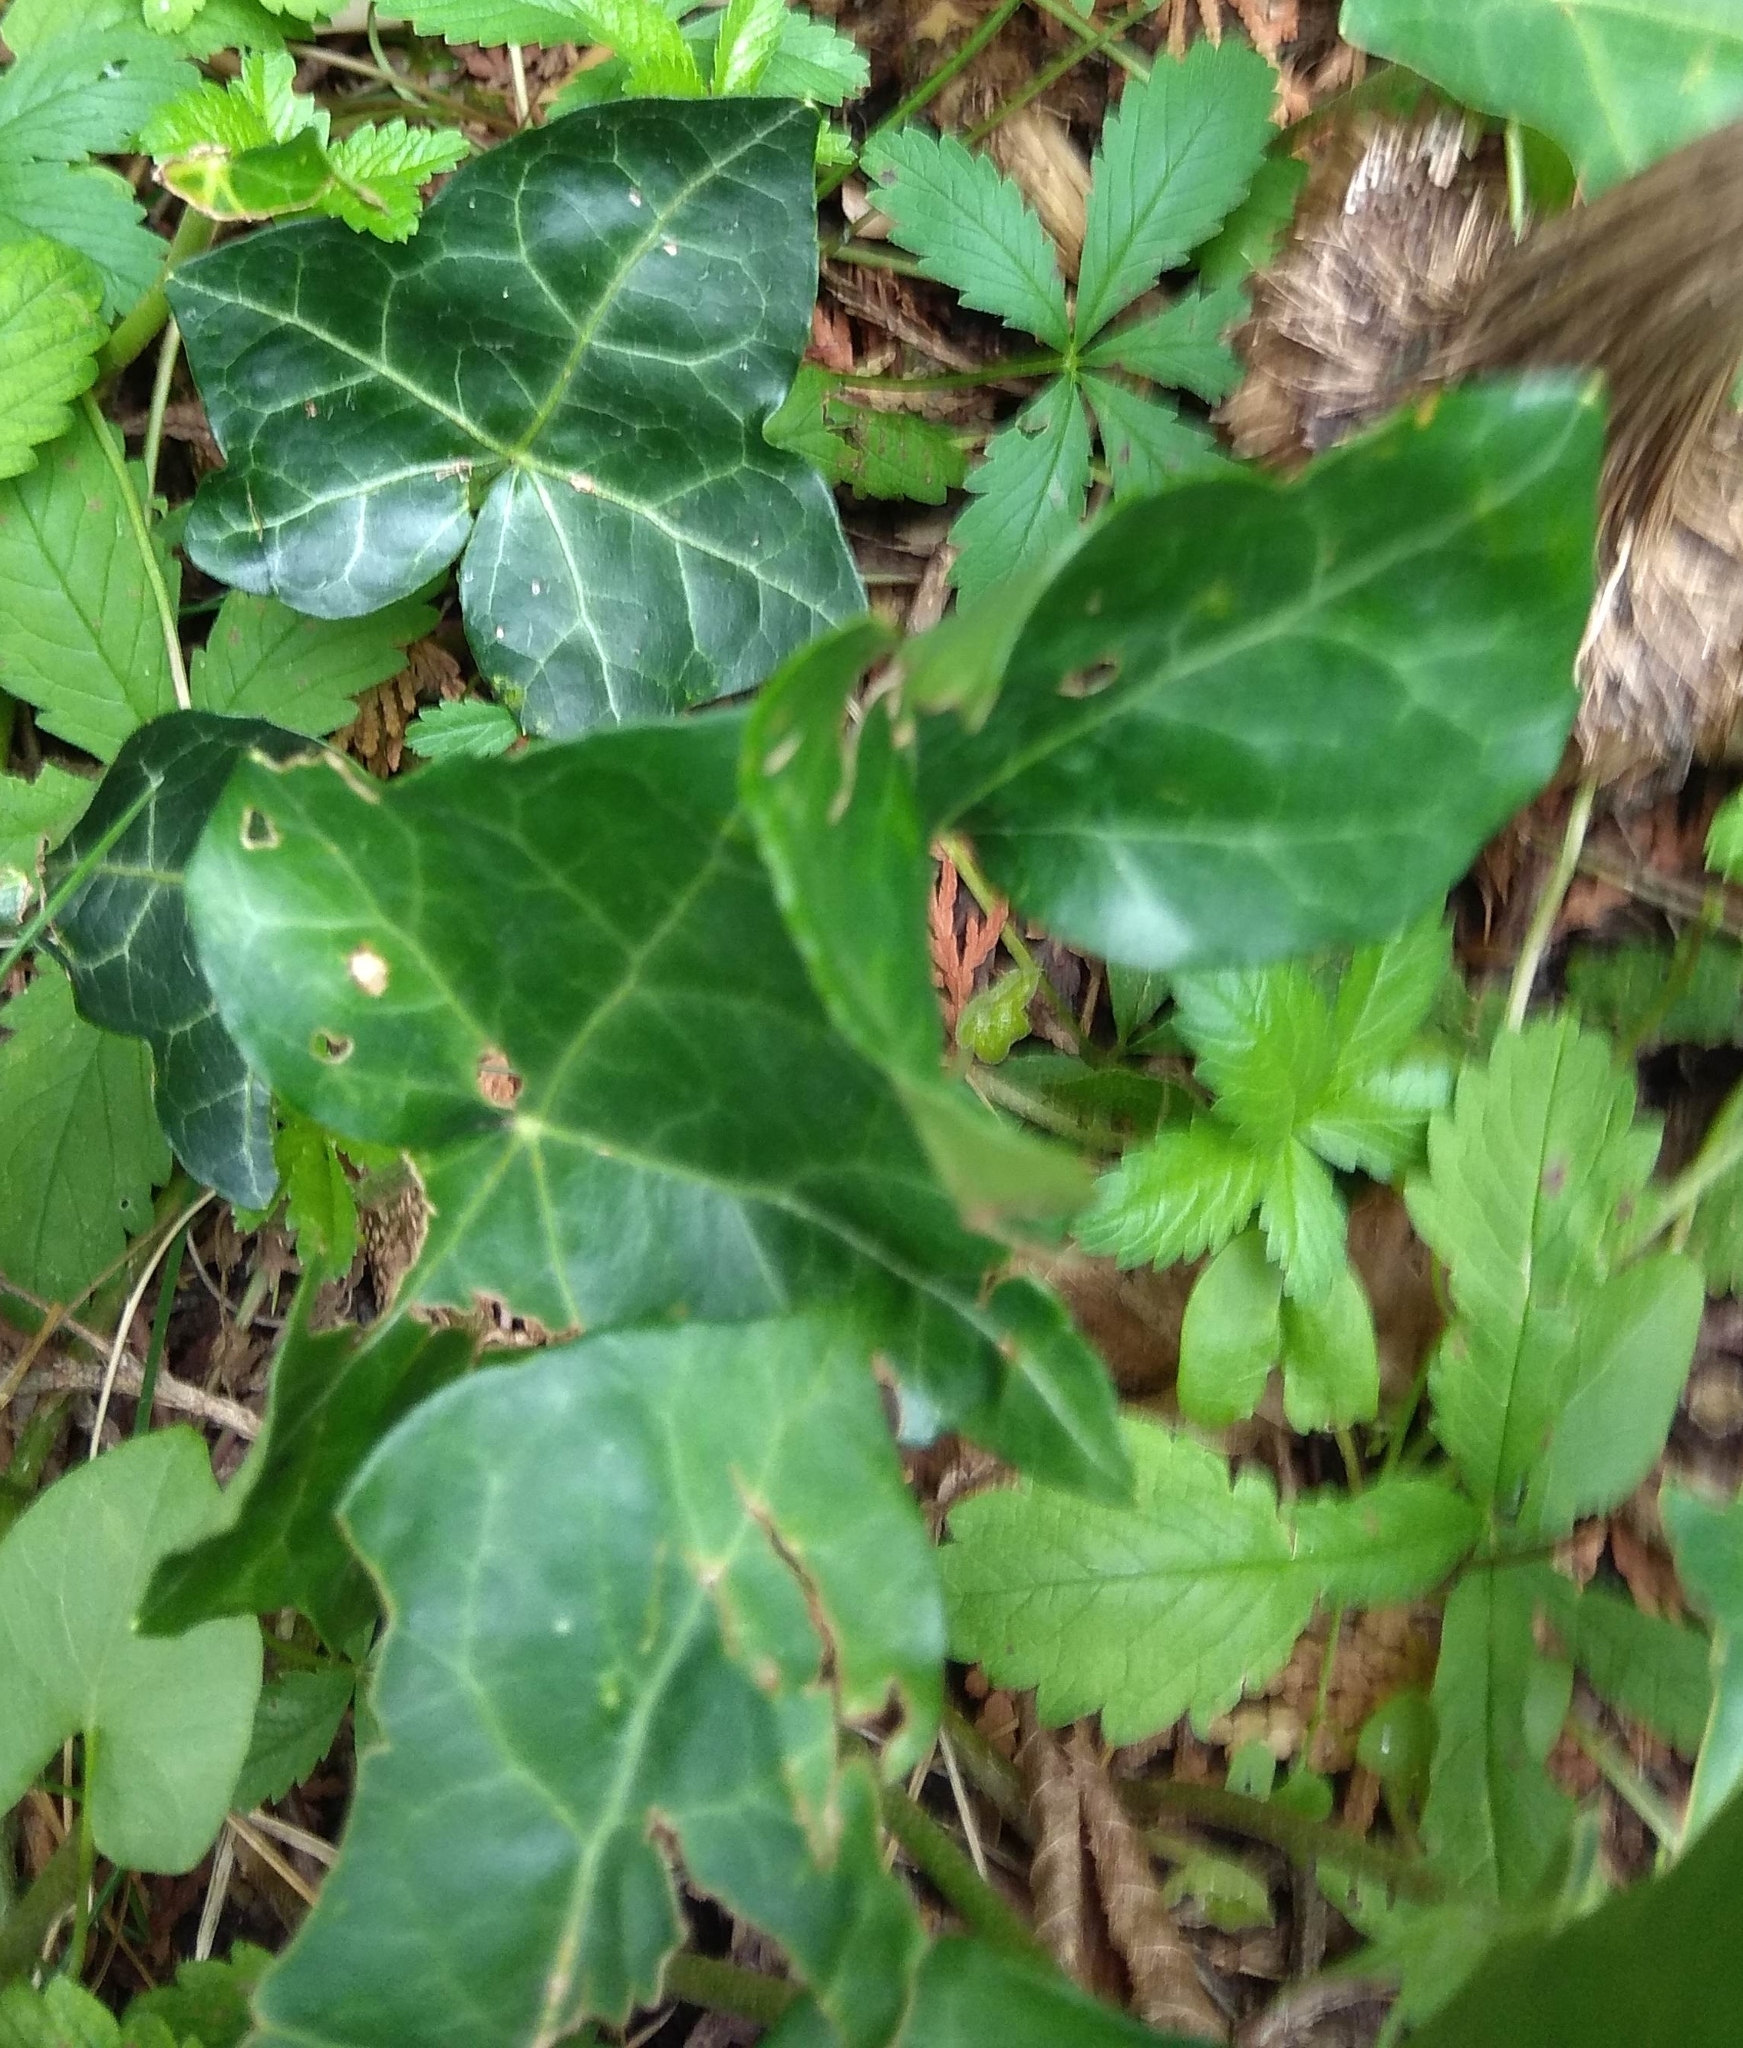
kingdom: Plantae
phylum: Tracheophyta
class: Magnoliopsida
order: Apiales
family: Araliaceae
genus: Hedera
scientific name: Hedera helix
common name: Ivy
